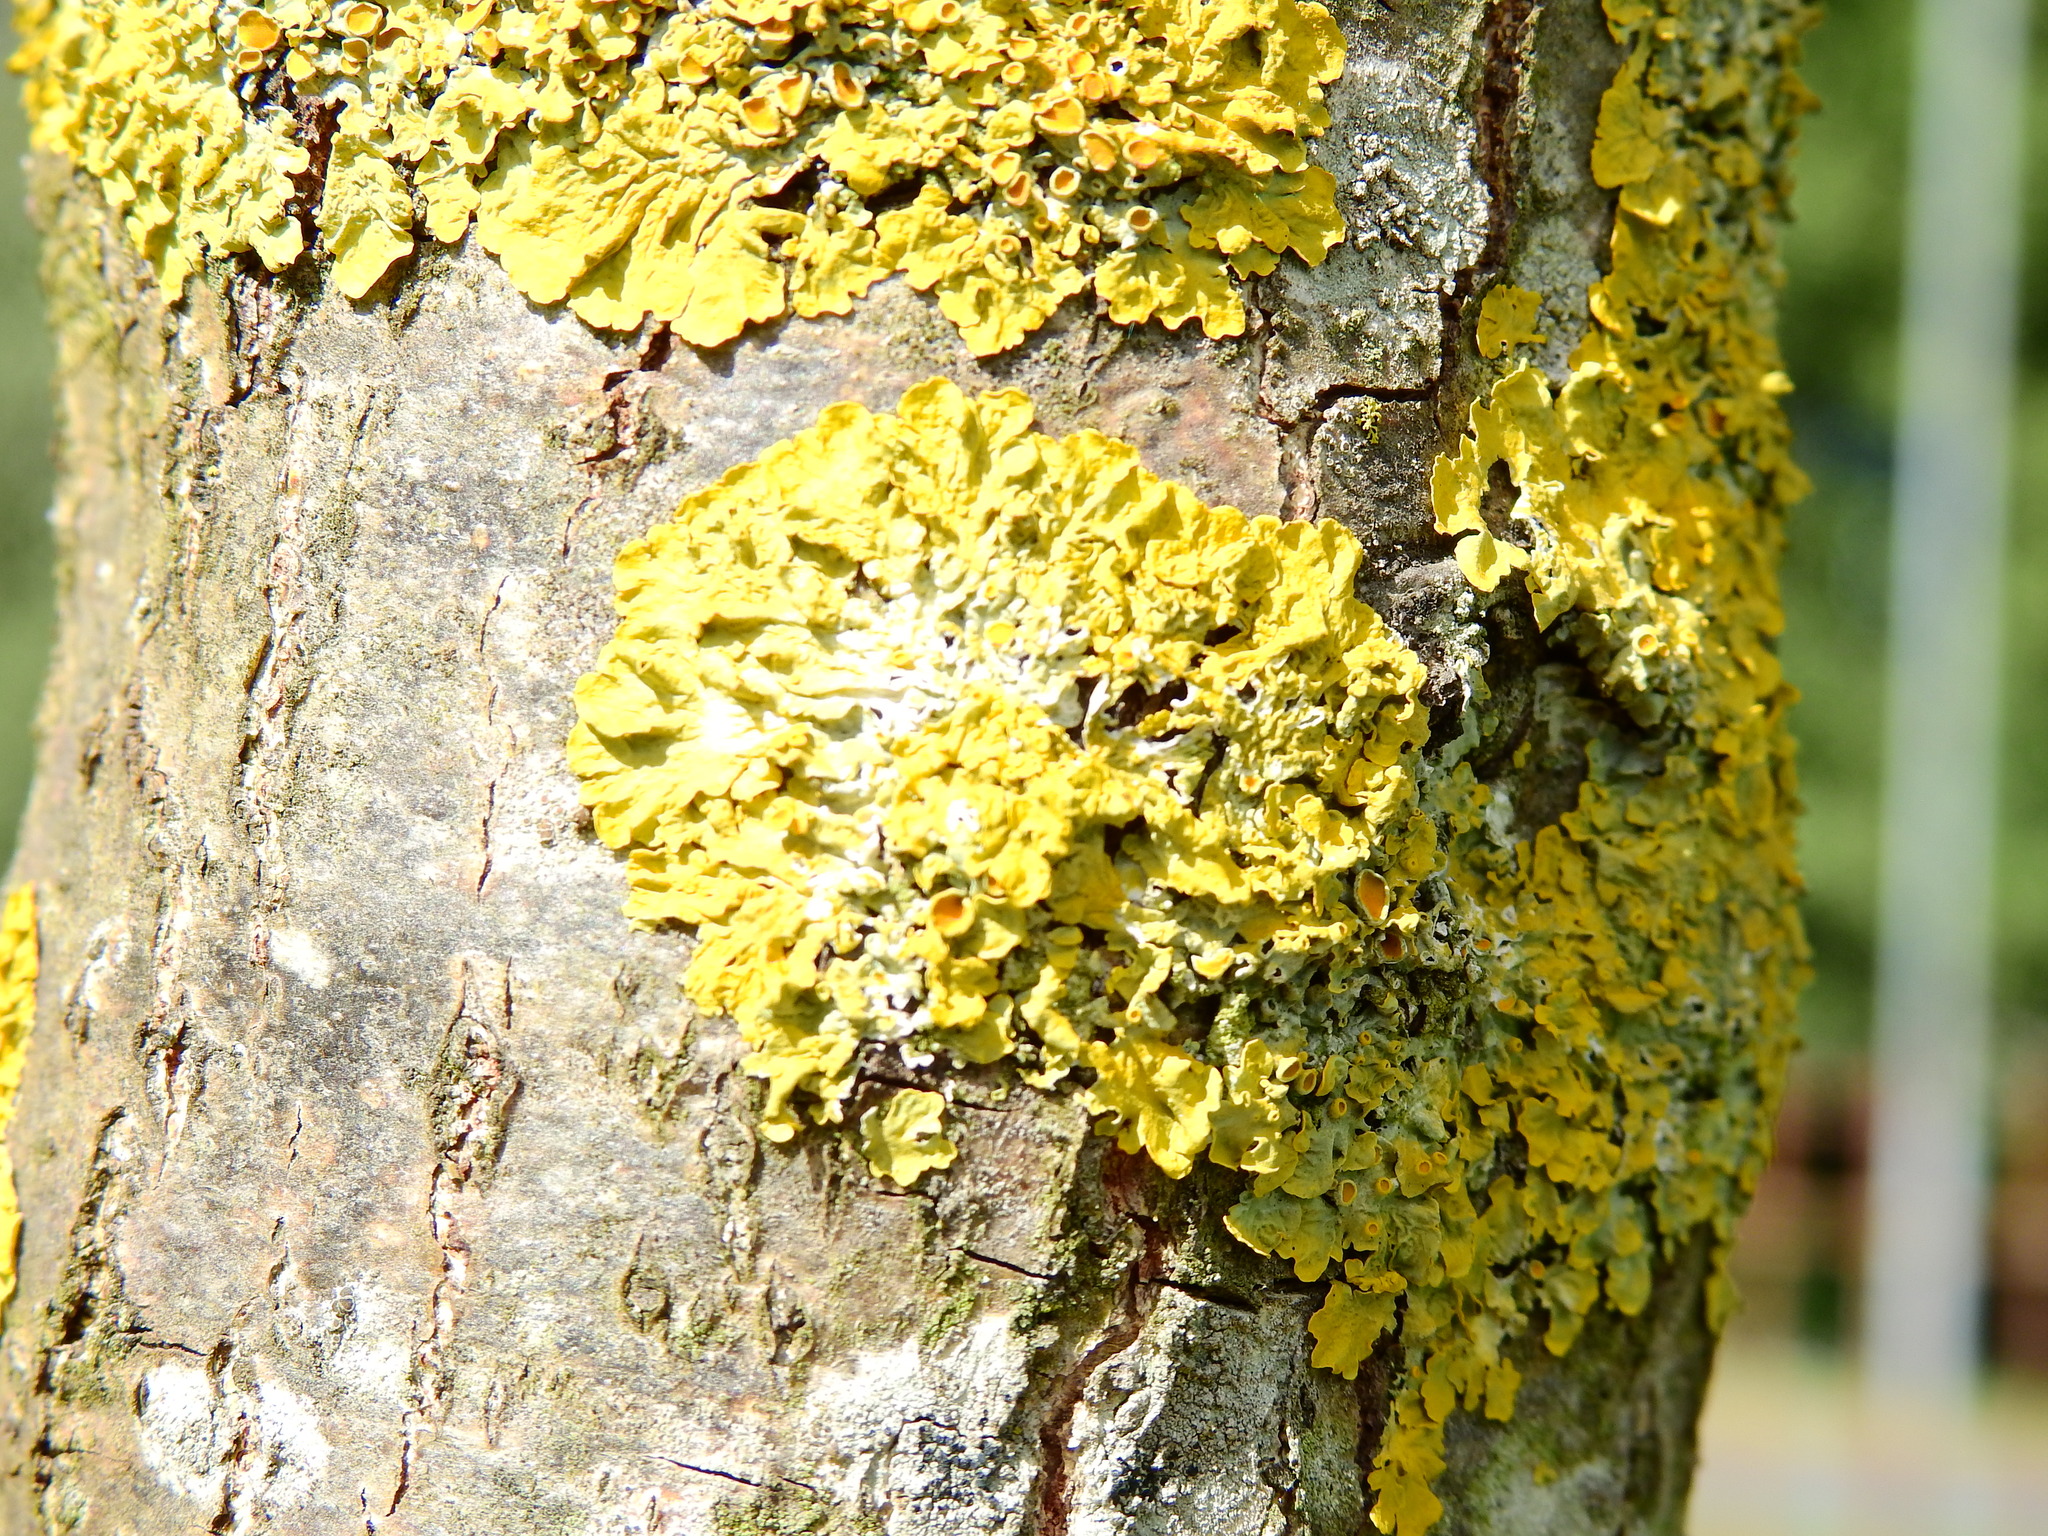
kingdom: Fungi
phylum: Ascomycota
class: Lecanoromycetes
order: Teloschistales
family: Teloschistaceae
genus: Xanthoria
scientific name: Xanthoria parietina
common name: Common orange lichen
